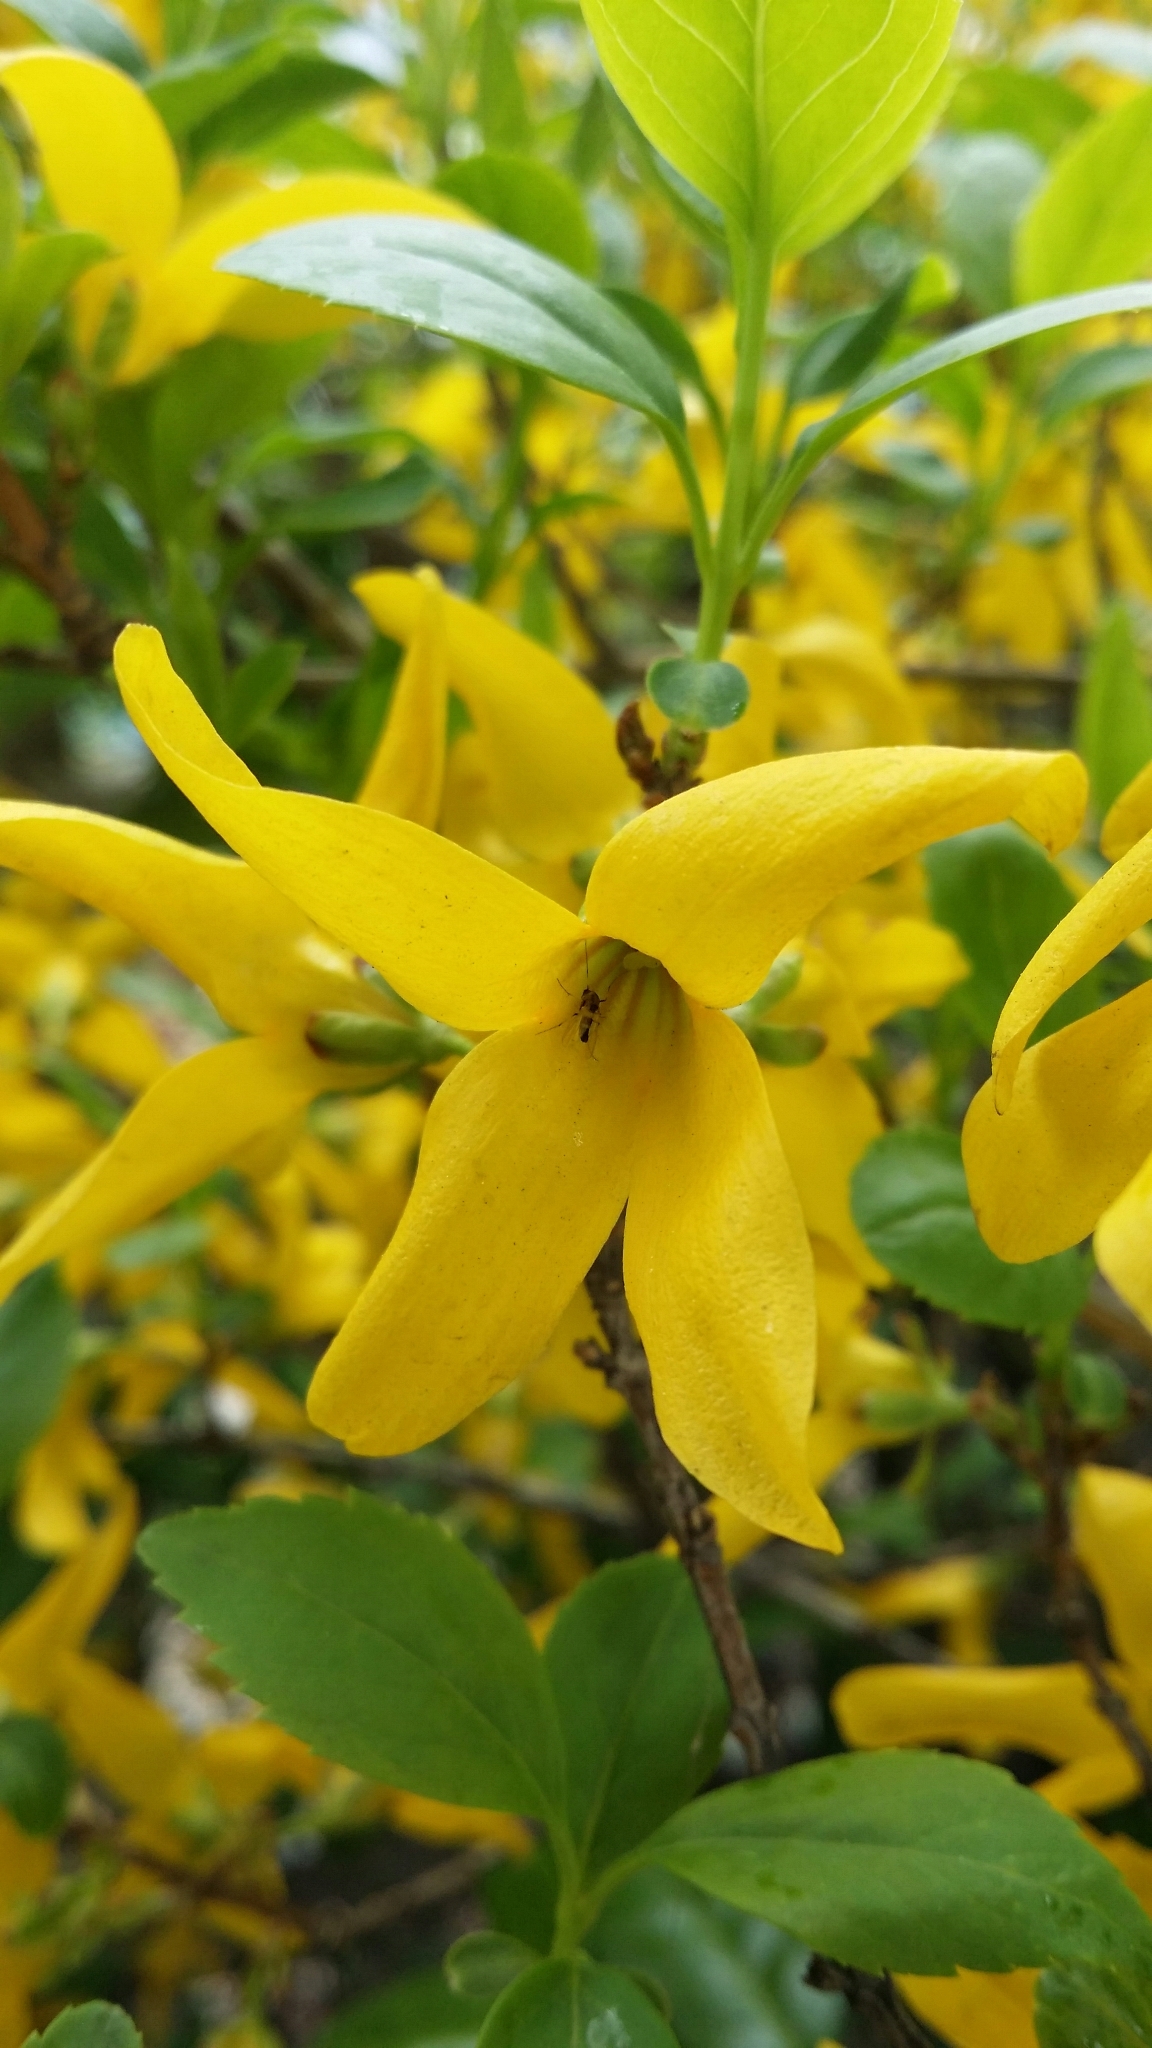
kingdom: Plantae
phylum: Tracheophyta
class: Magnoliopsida
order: Lamiales
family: Oleaceae
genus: Forsythia
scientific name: Forsythia koreana
